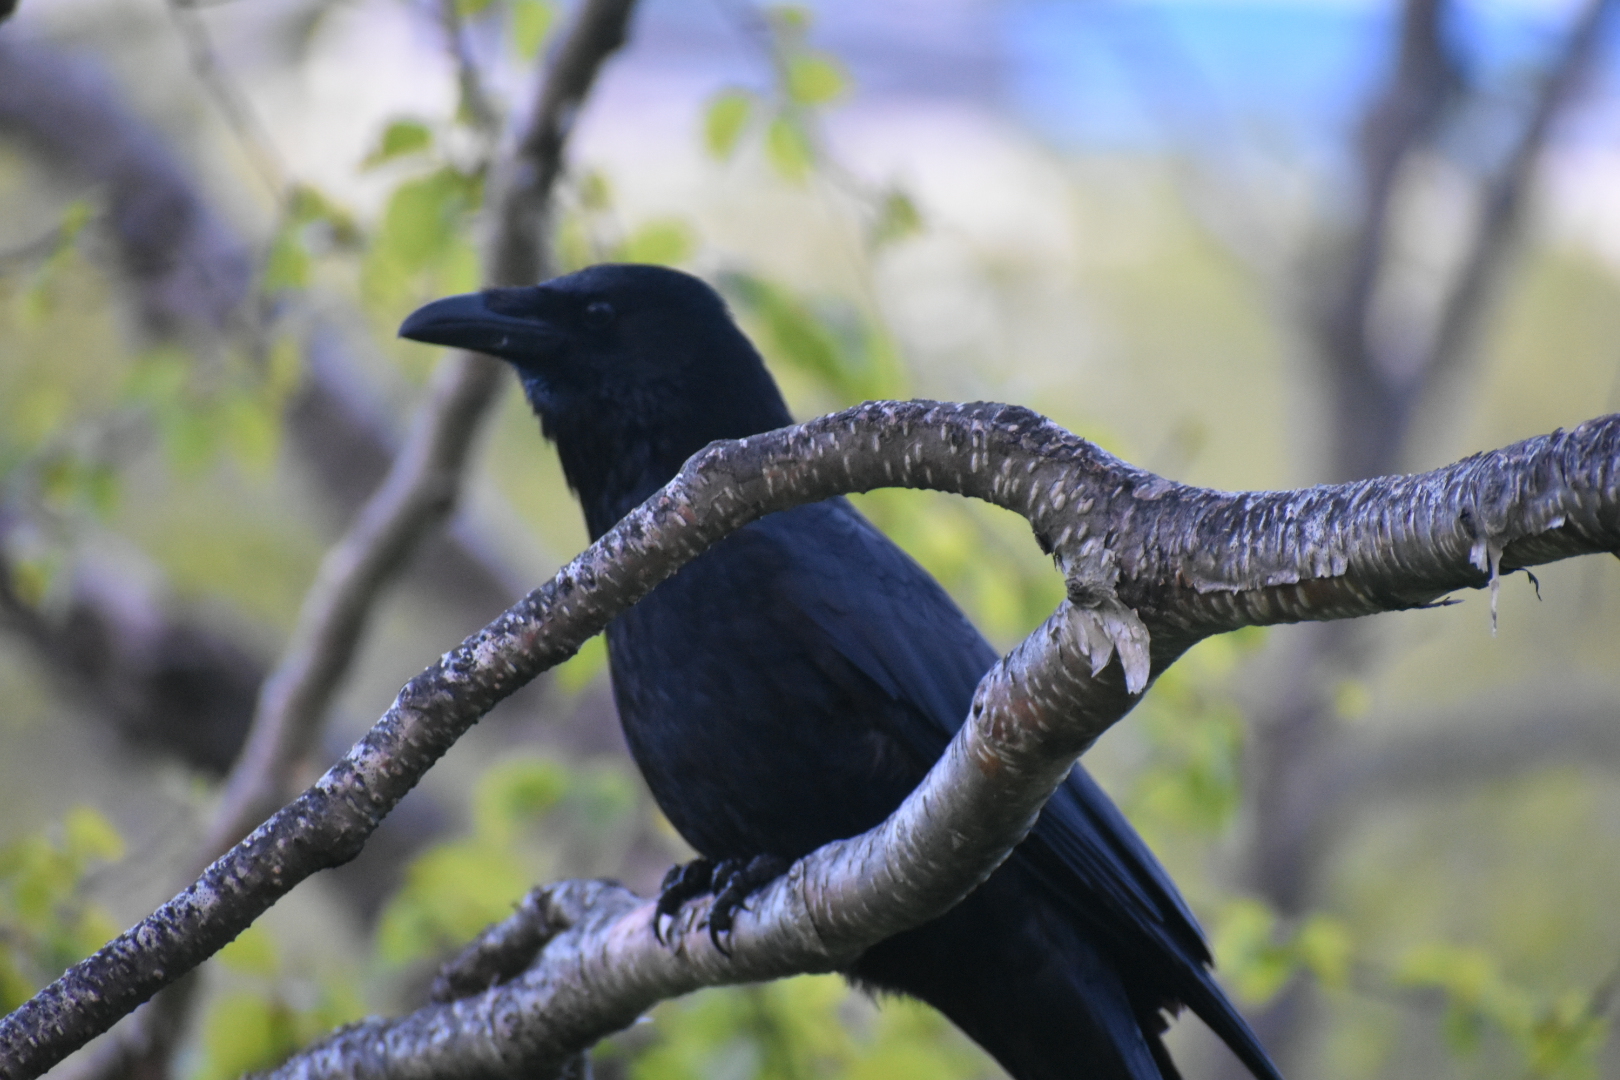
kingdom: Animalia
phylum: Chordata
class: Aves
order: Passeriformes
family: Corvidae
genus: Corvus
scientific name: Corvus corone
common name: Carrion crow
